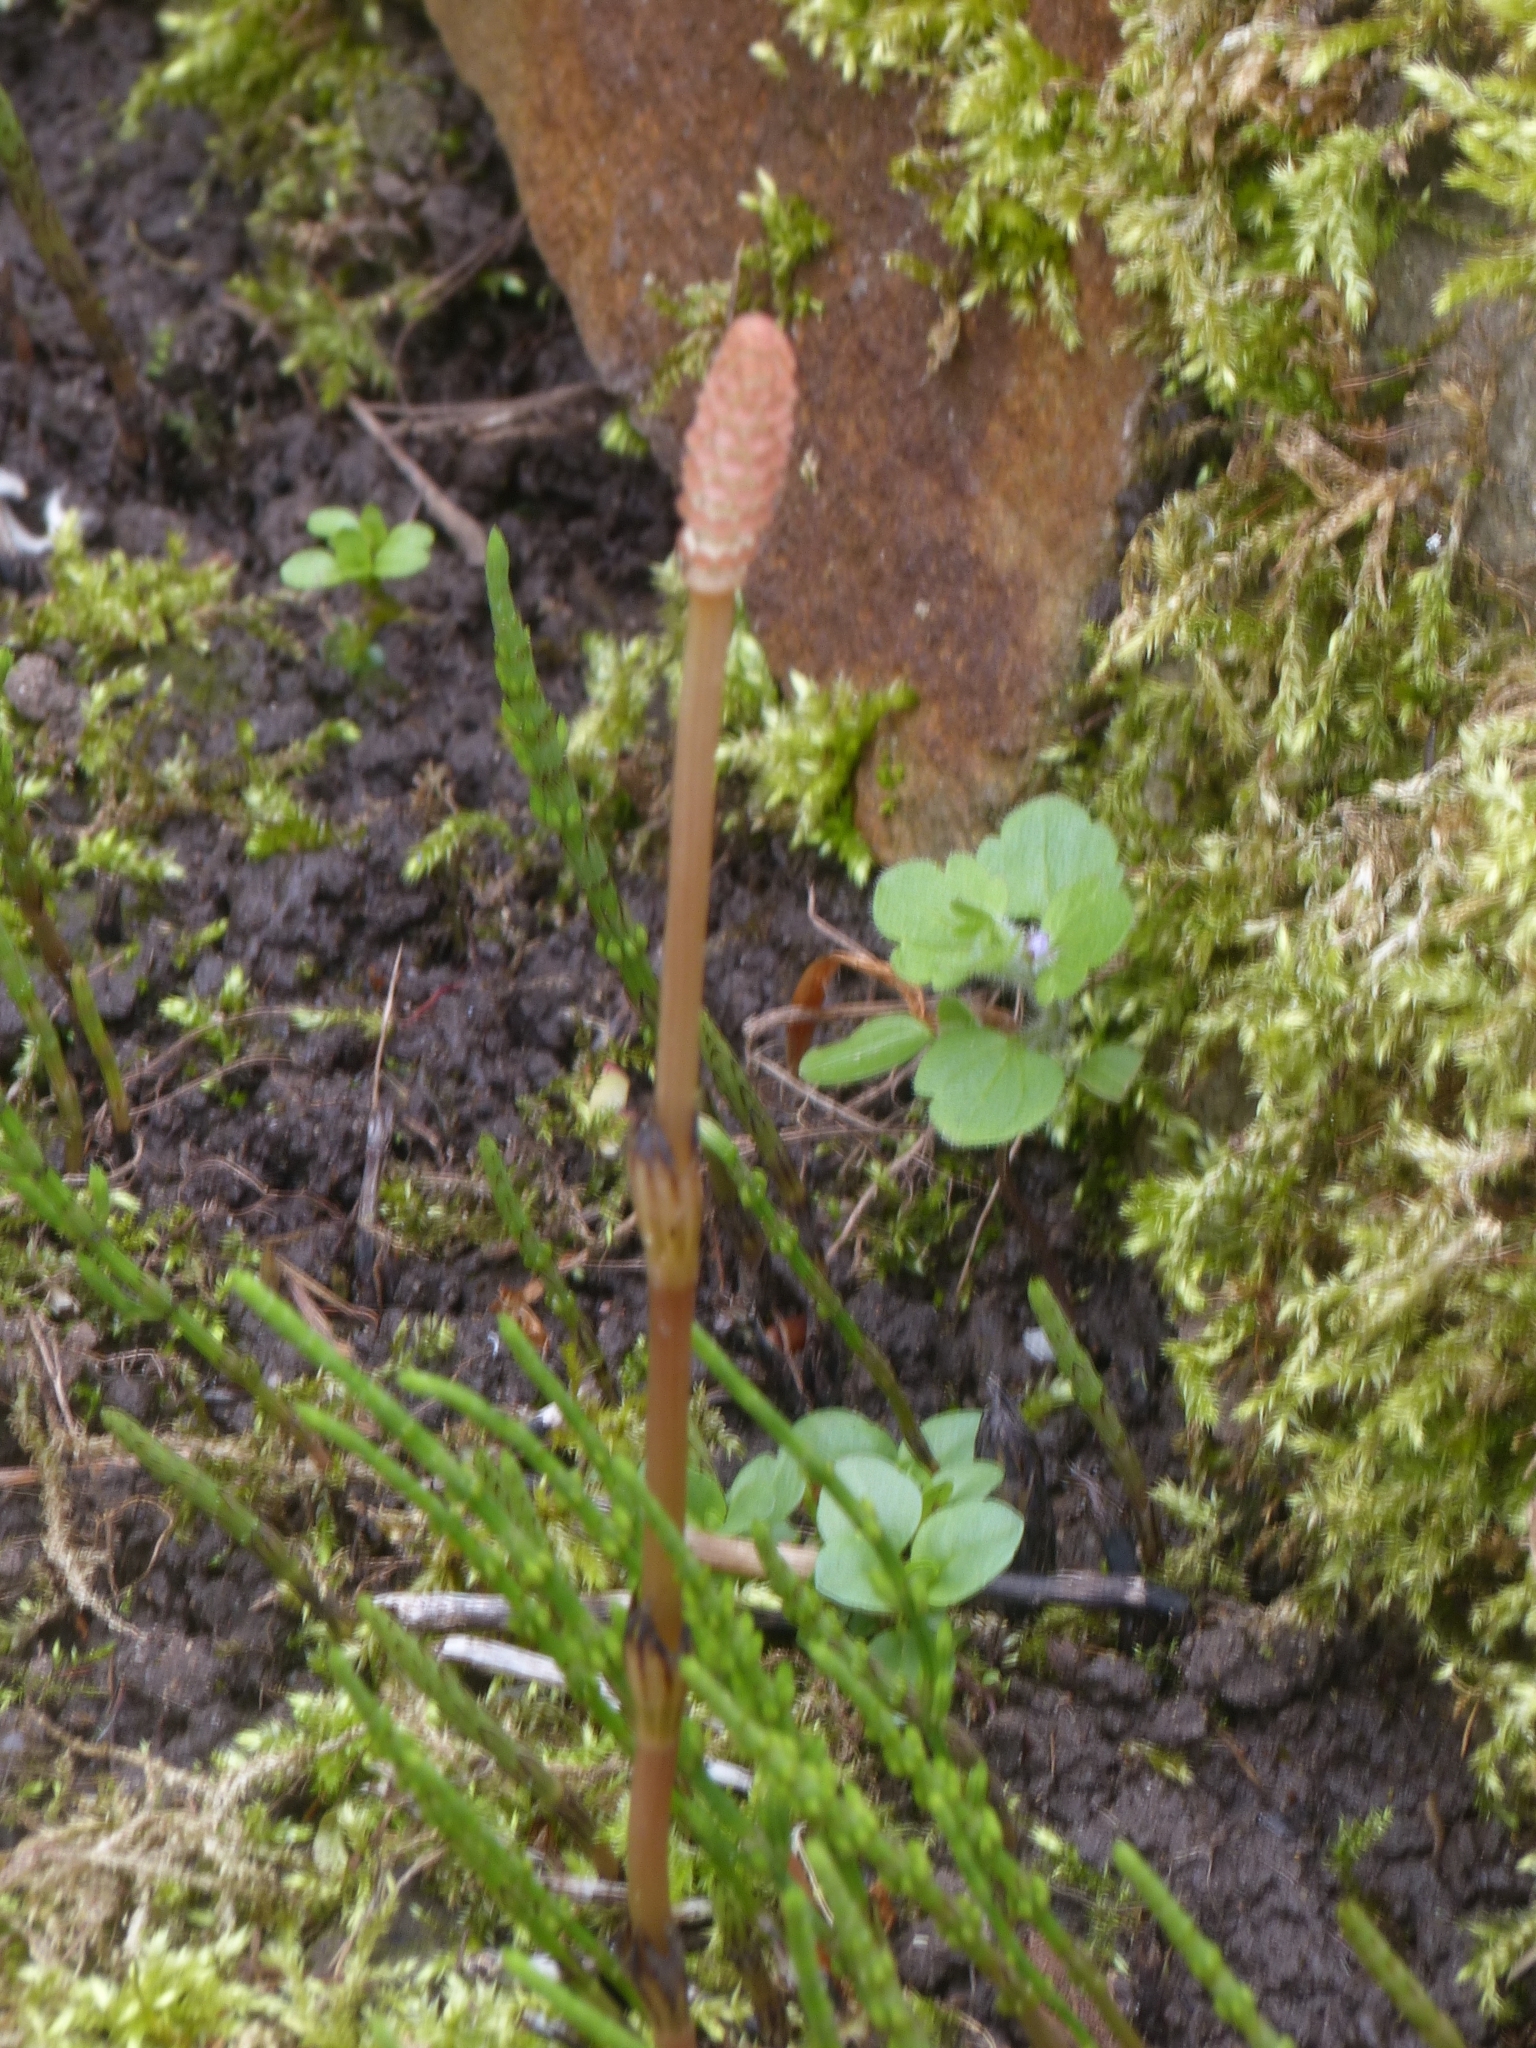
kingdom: Plantae
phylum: Tracheophyta
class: Polypodiopsida
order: Equisetales
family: Equisetaceae
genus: Equisetum
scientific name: Equisetum arvense
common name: Field horsetail
